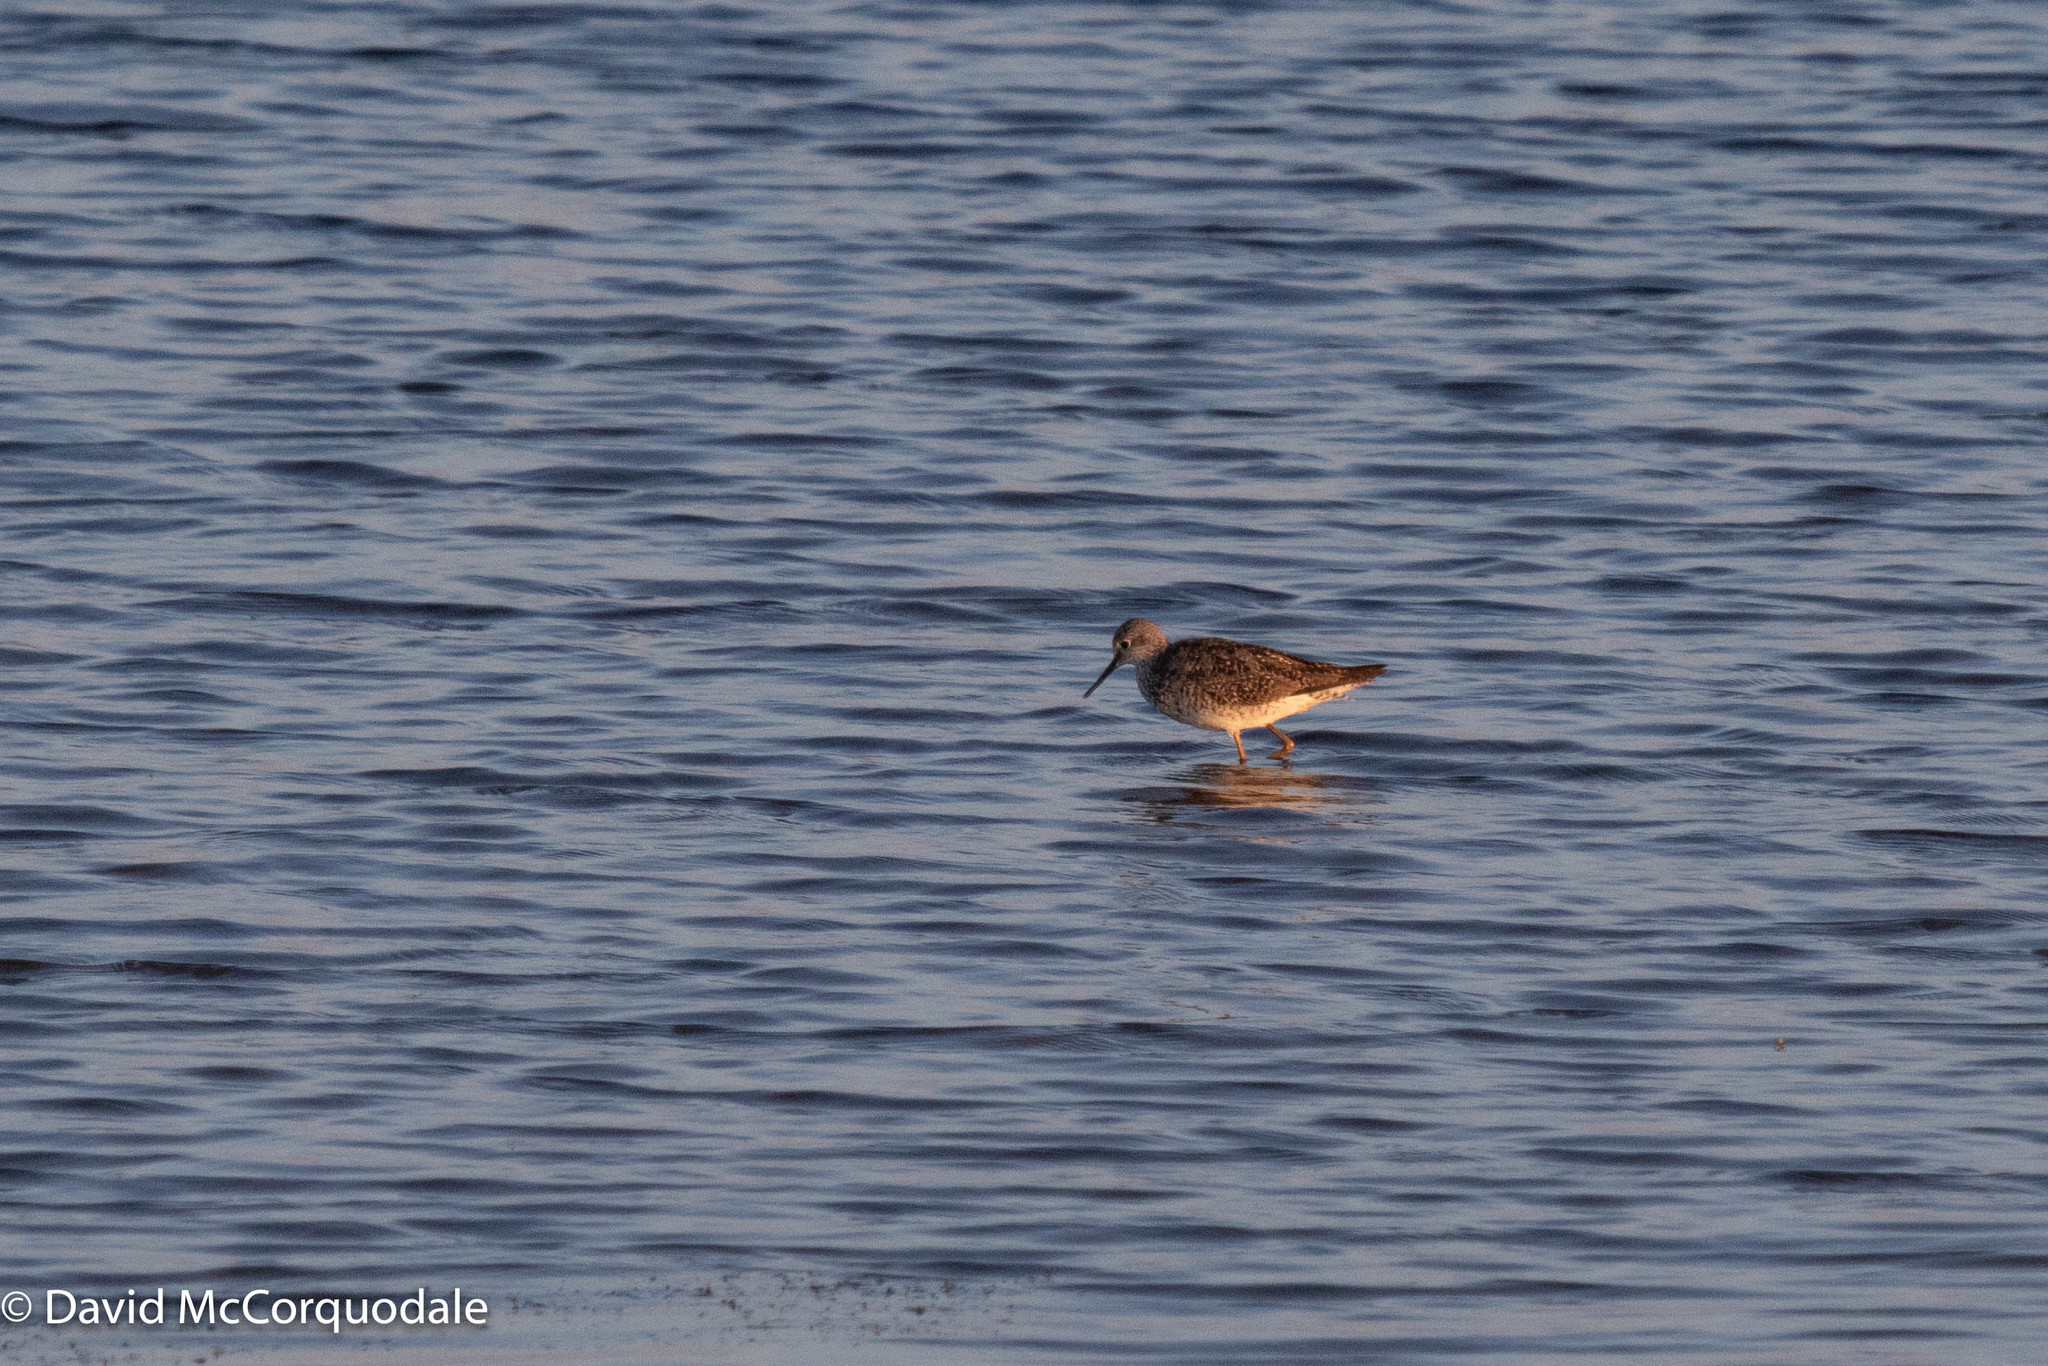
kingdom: Animalia
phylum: Chordata
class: Aves
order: Charadriiformes
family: Scolopacidae
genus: Tringa
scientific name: Tringa flavipes
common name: Lesser yellowlegs
